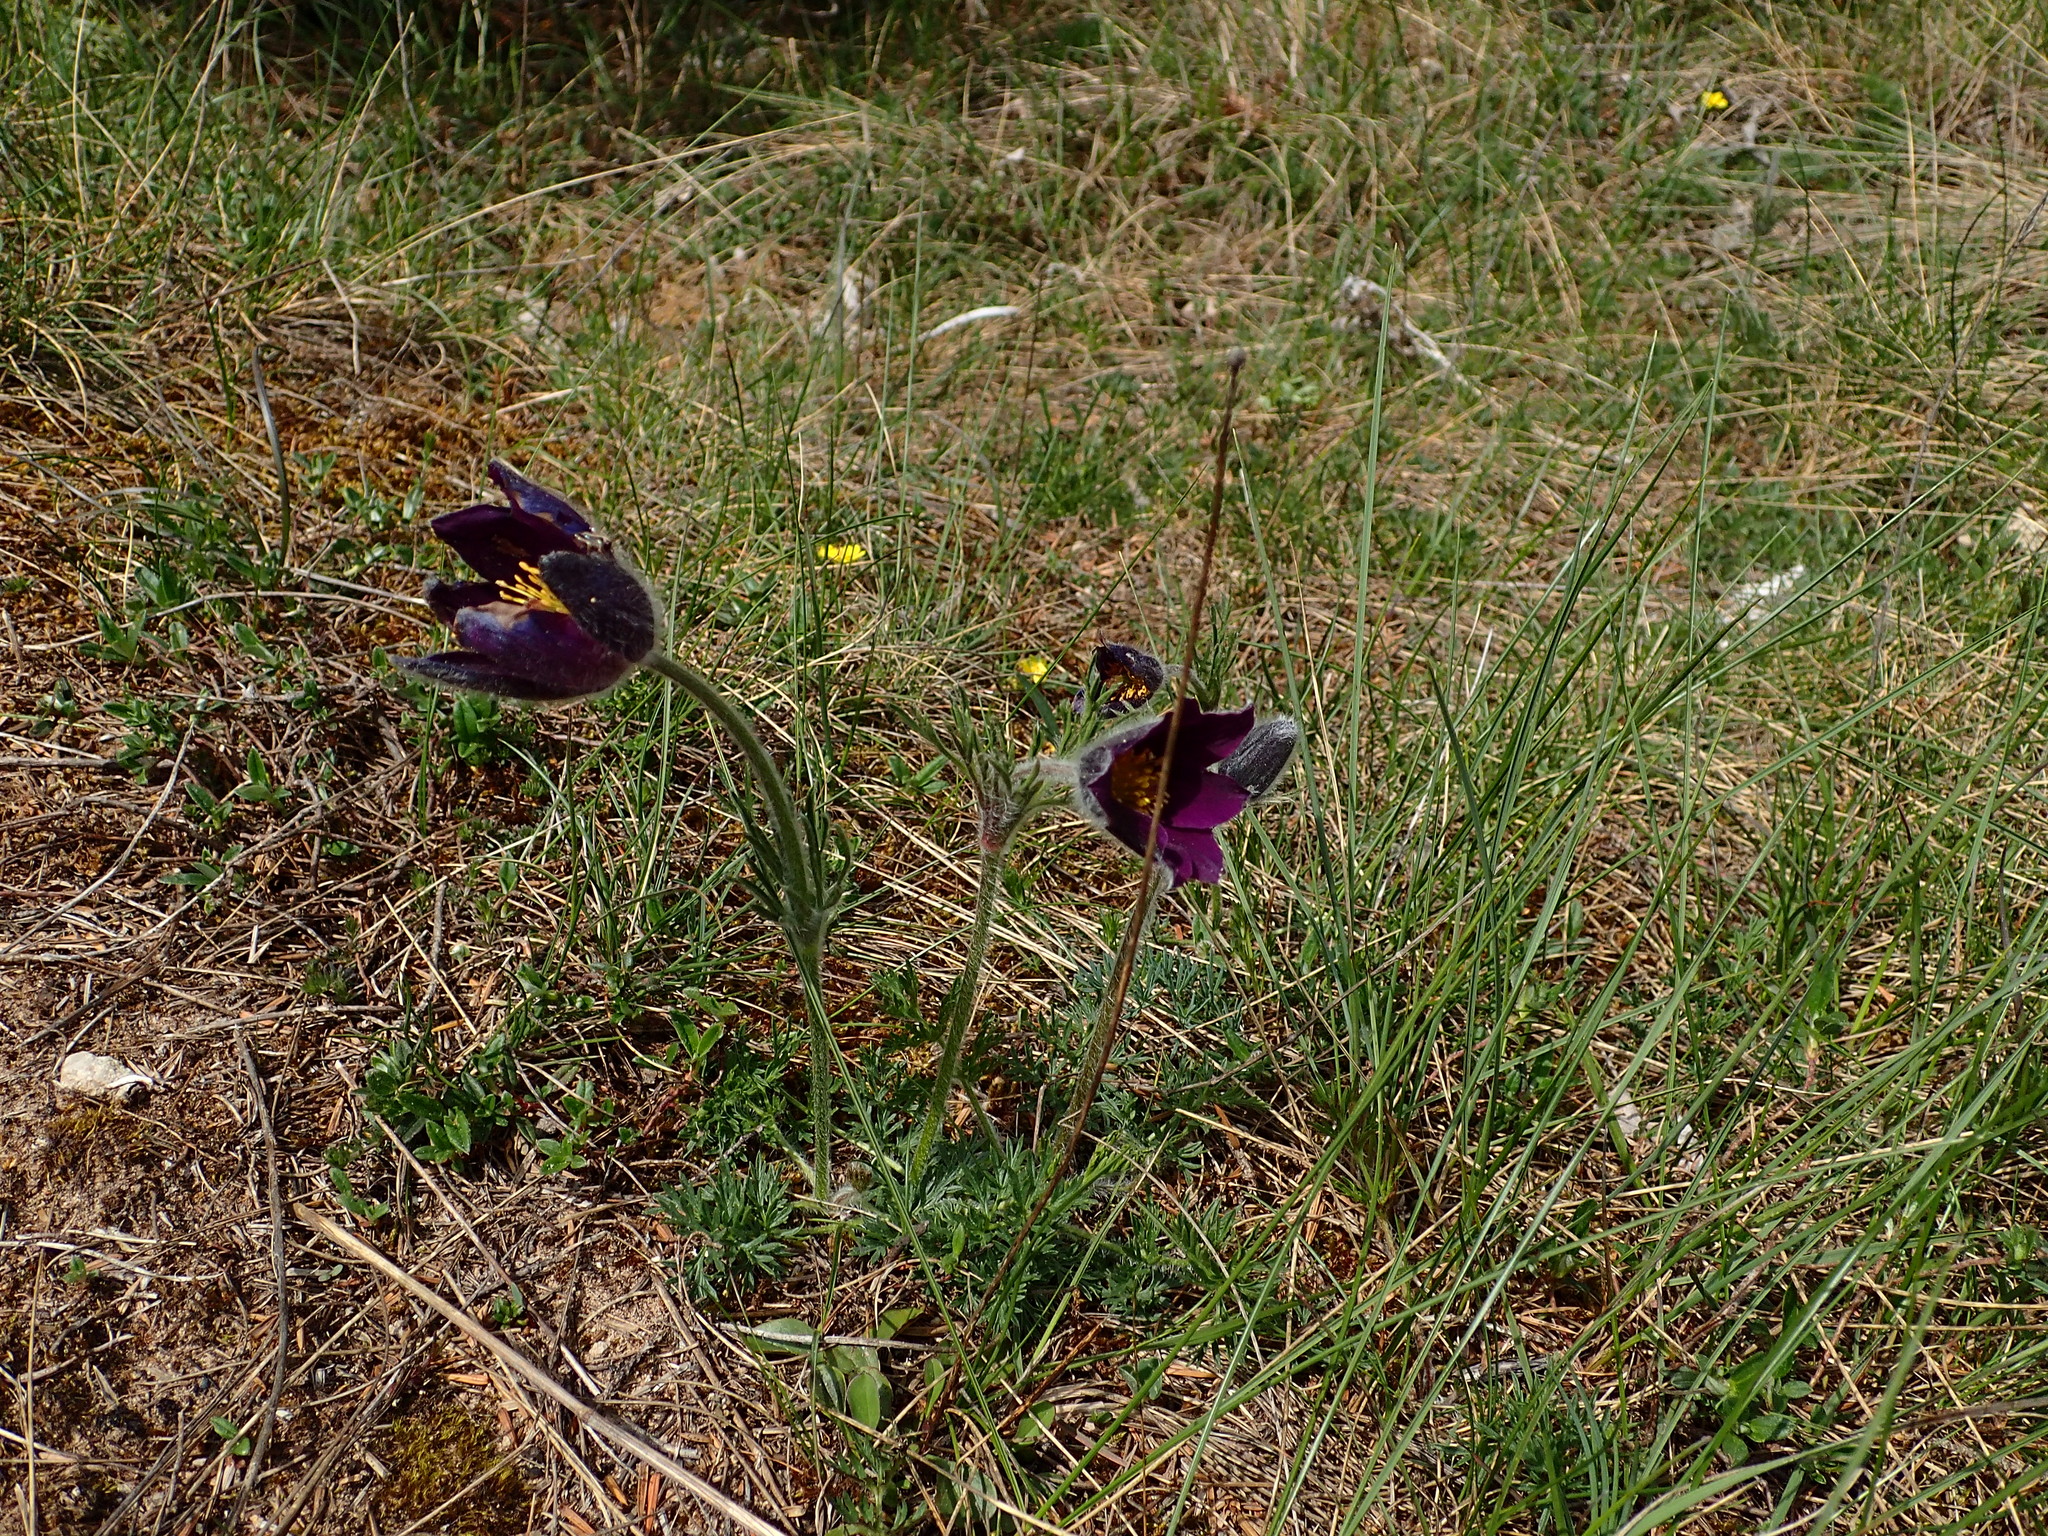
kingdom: Plantae
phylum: Tracheophyta
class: Magnoliopsida
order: Ranunculales
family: Ranunculaceae
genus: Pulsatilla
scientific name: Pulsatilla vulgaris
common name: Pasqueflower
